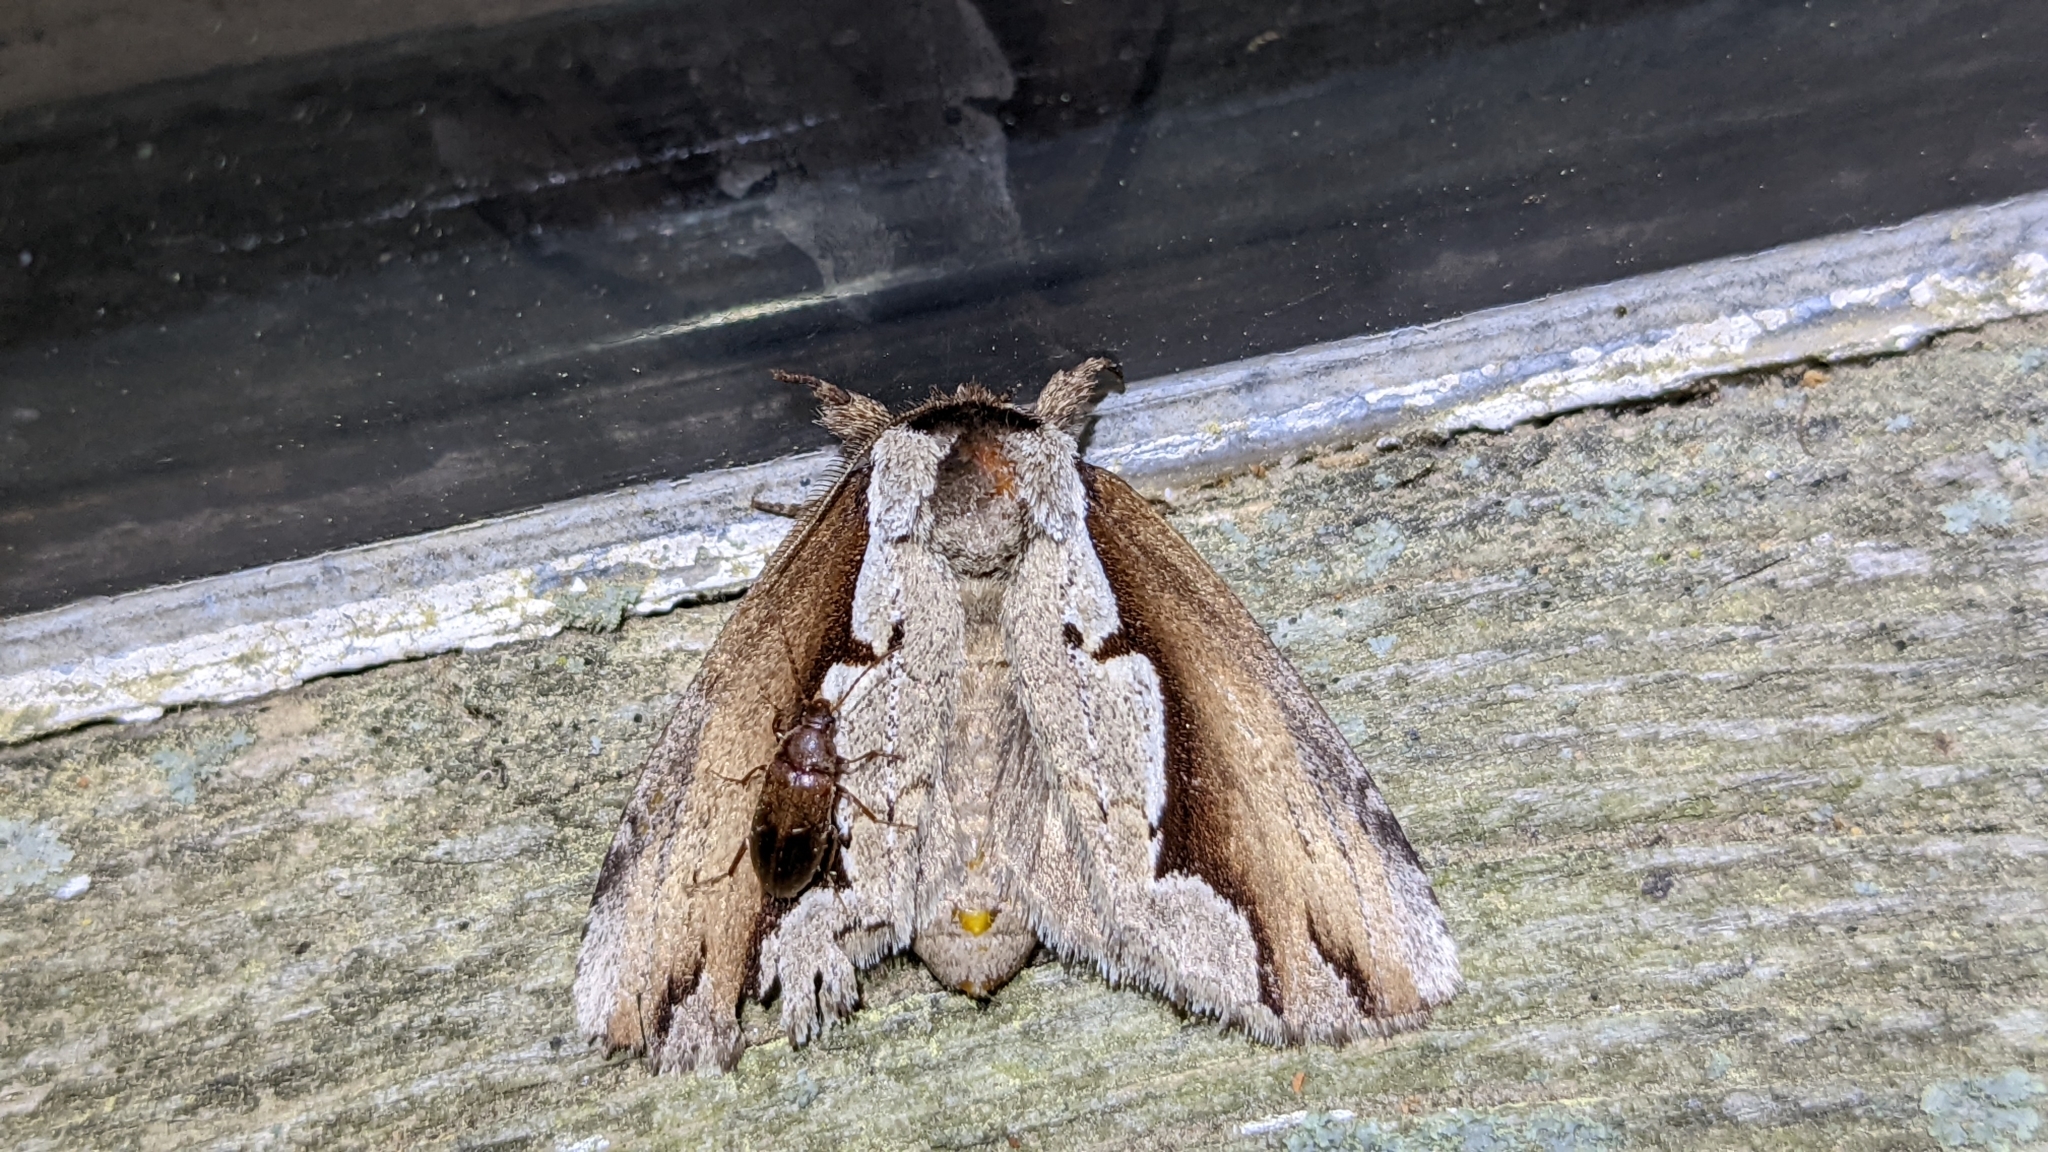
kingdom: Animalia
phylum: Arthropoda
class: Insecta
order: Lepidoptera
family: Notodontidae
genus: Nerice
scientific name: Nerice bidentata
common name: Double-toothed prominent
